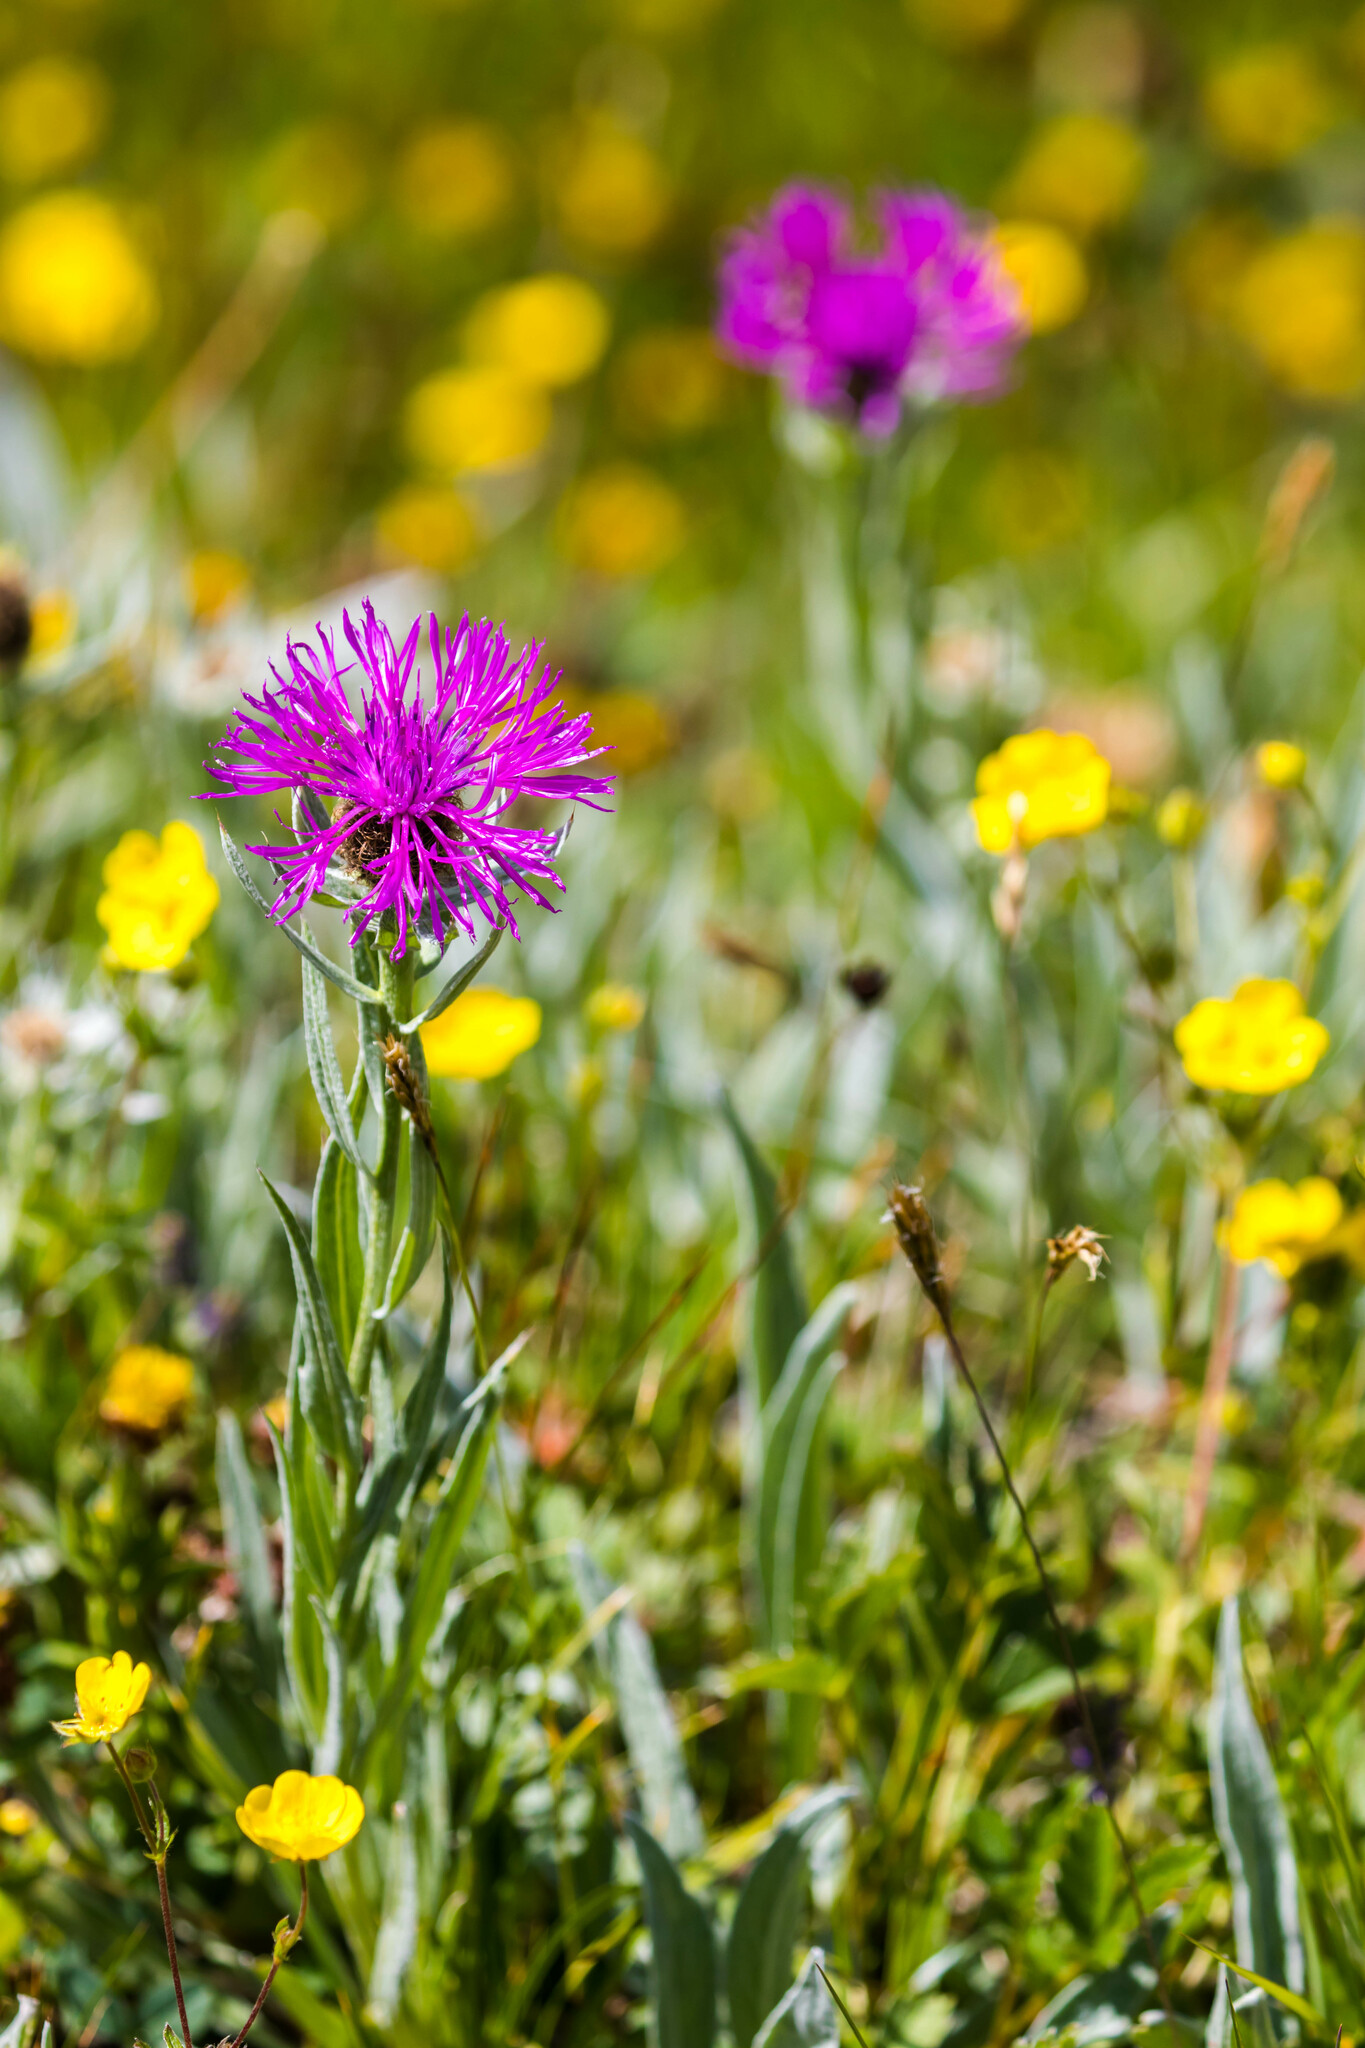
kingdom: Plantae
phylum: Tracheophyta
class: Magnoliopsida
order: Asterales
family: Asteraceae
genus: Centaurea
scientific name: Centaurea uniflora
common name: Singleflower knapweed
